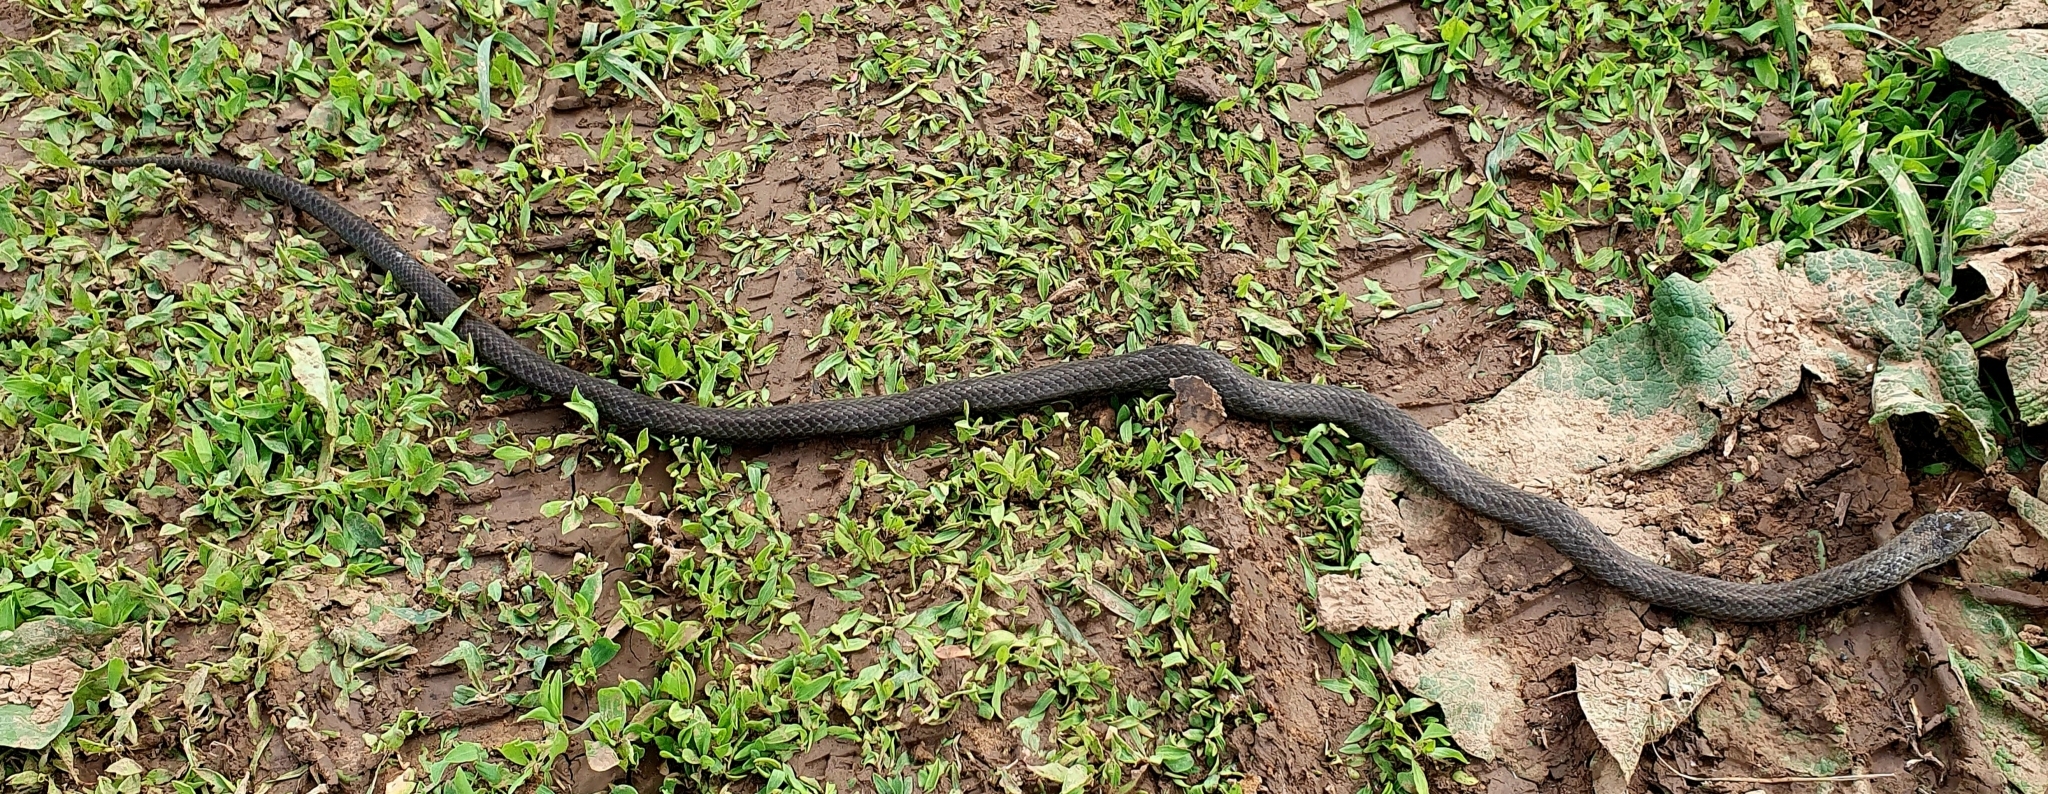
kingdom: Animalia
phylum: Chordata
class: Squamata
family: Colubridae
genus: Coronella
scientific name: Coronella austriaca
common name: Smooth snake
